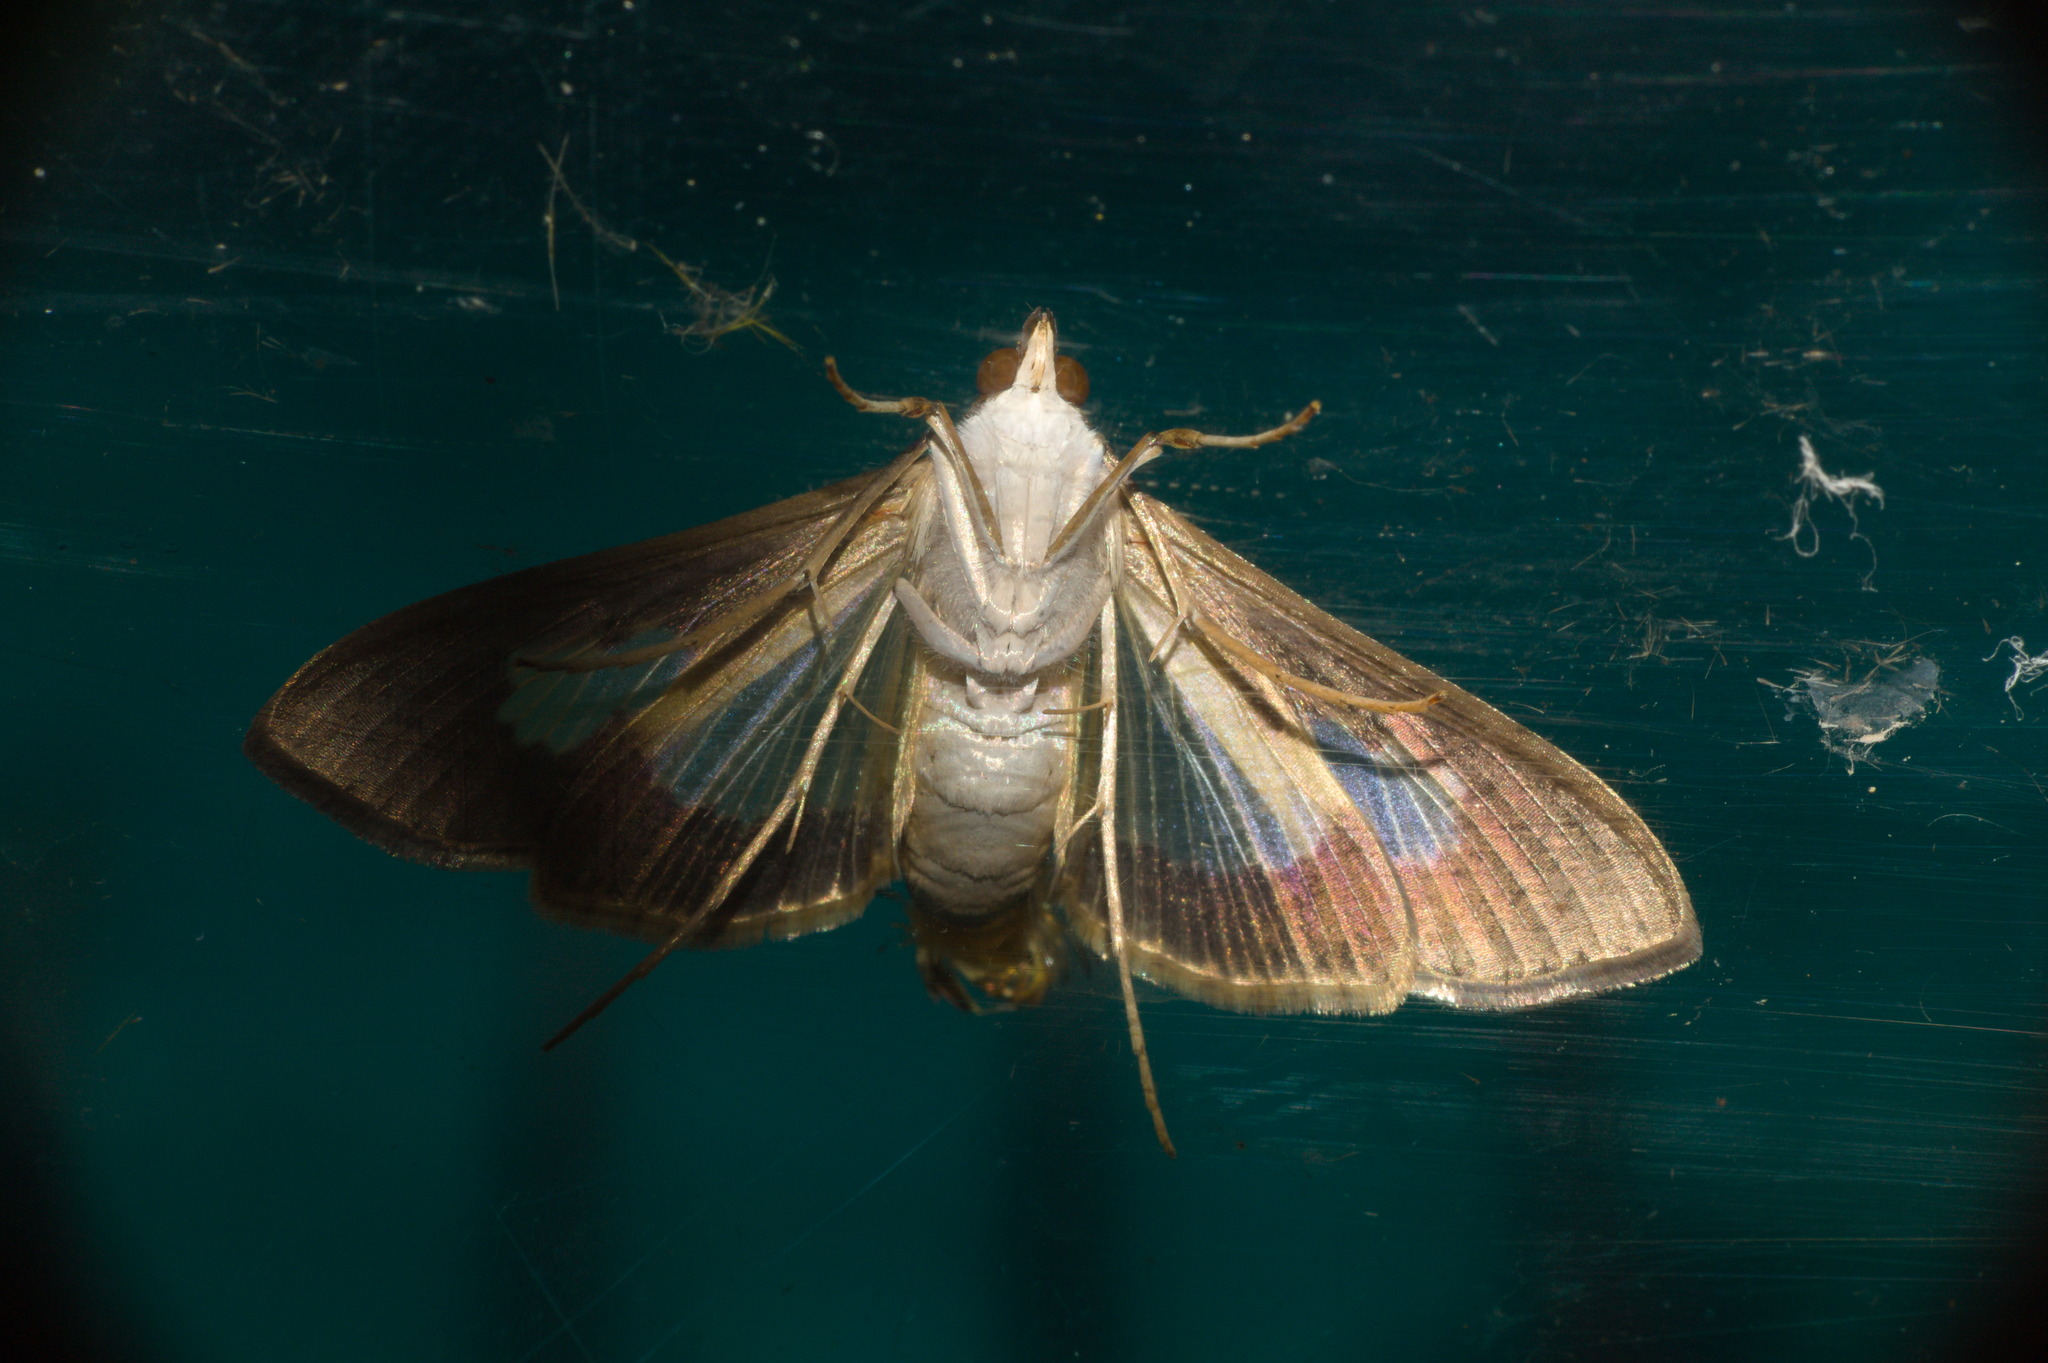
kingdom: Animalia
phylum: Arthropoda
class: Insecta
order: Lepidoptera
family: Crambidae
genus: Cryptographis
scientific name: Cryptographis nitidalis
